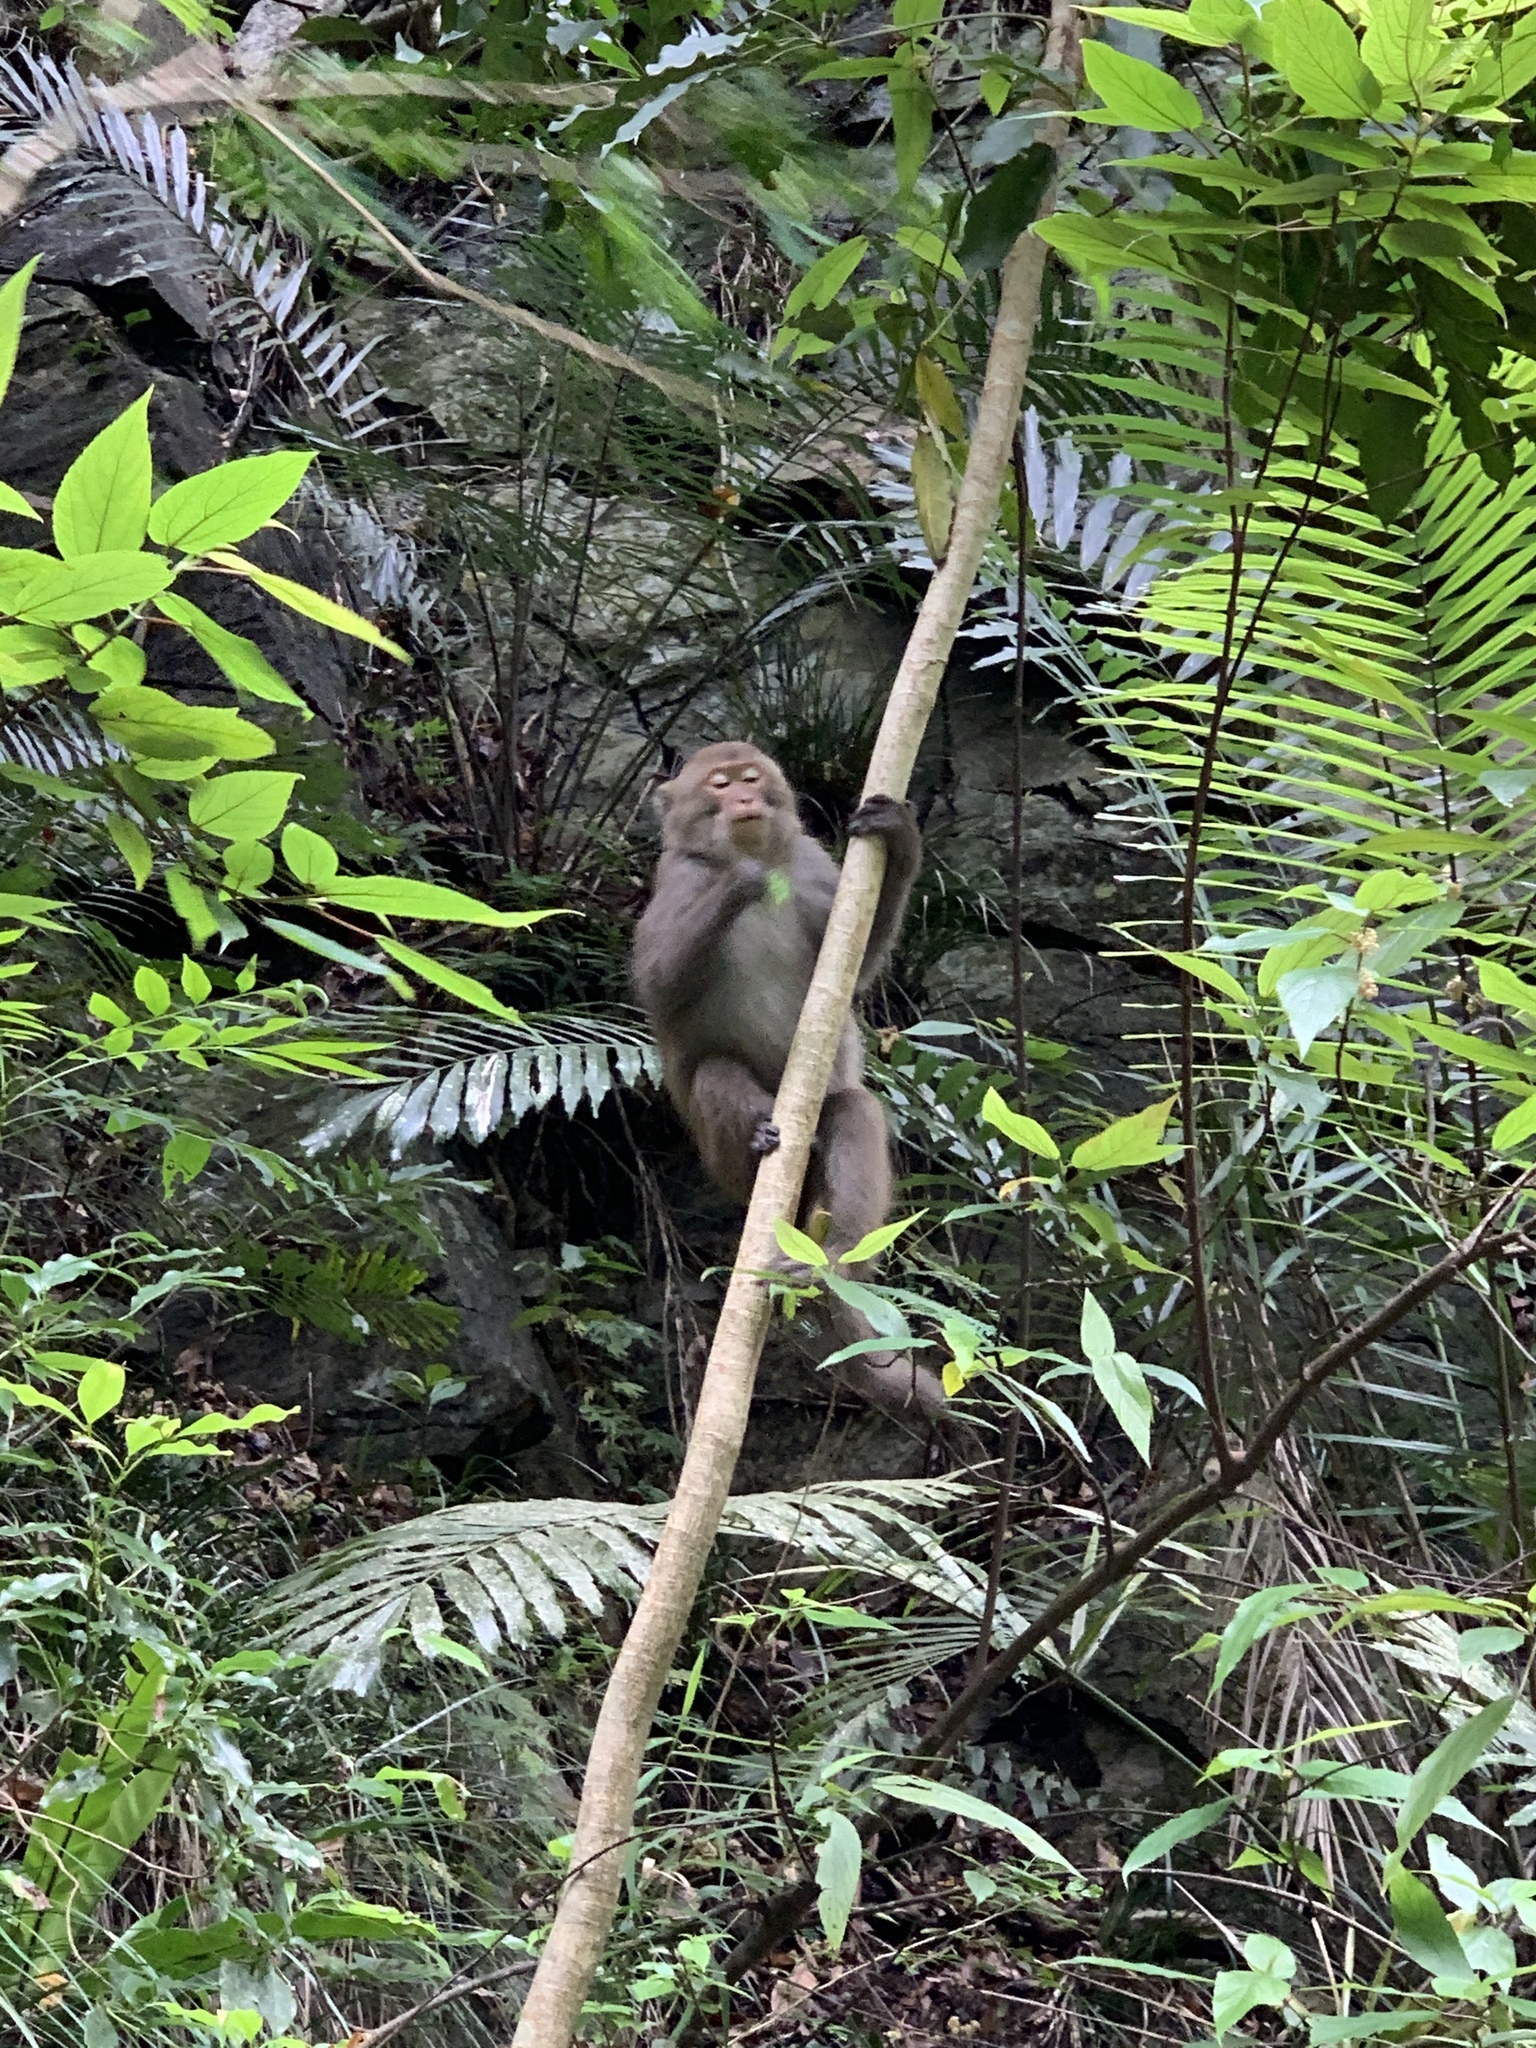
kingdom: Animalia
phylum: Chordata
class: Mammalia
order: Primates
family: Cercopithecidae
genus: Macaca
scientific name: Macaca cyclopis
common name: Formosan rock macaque
